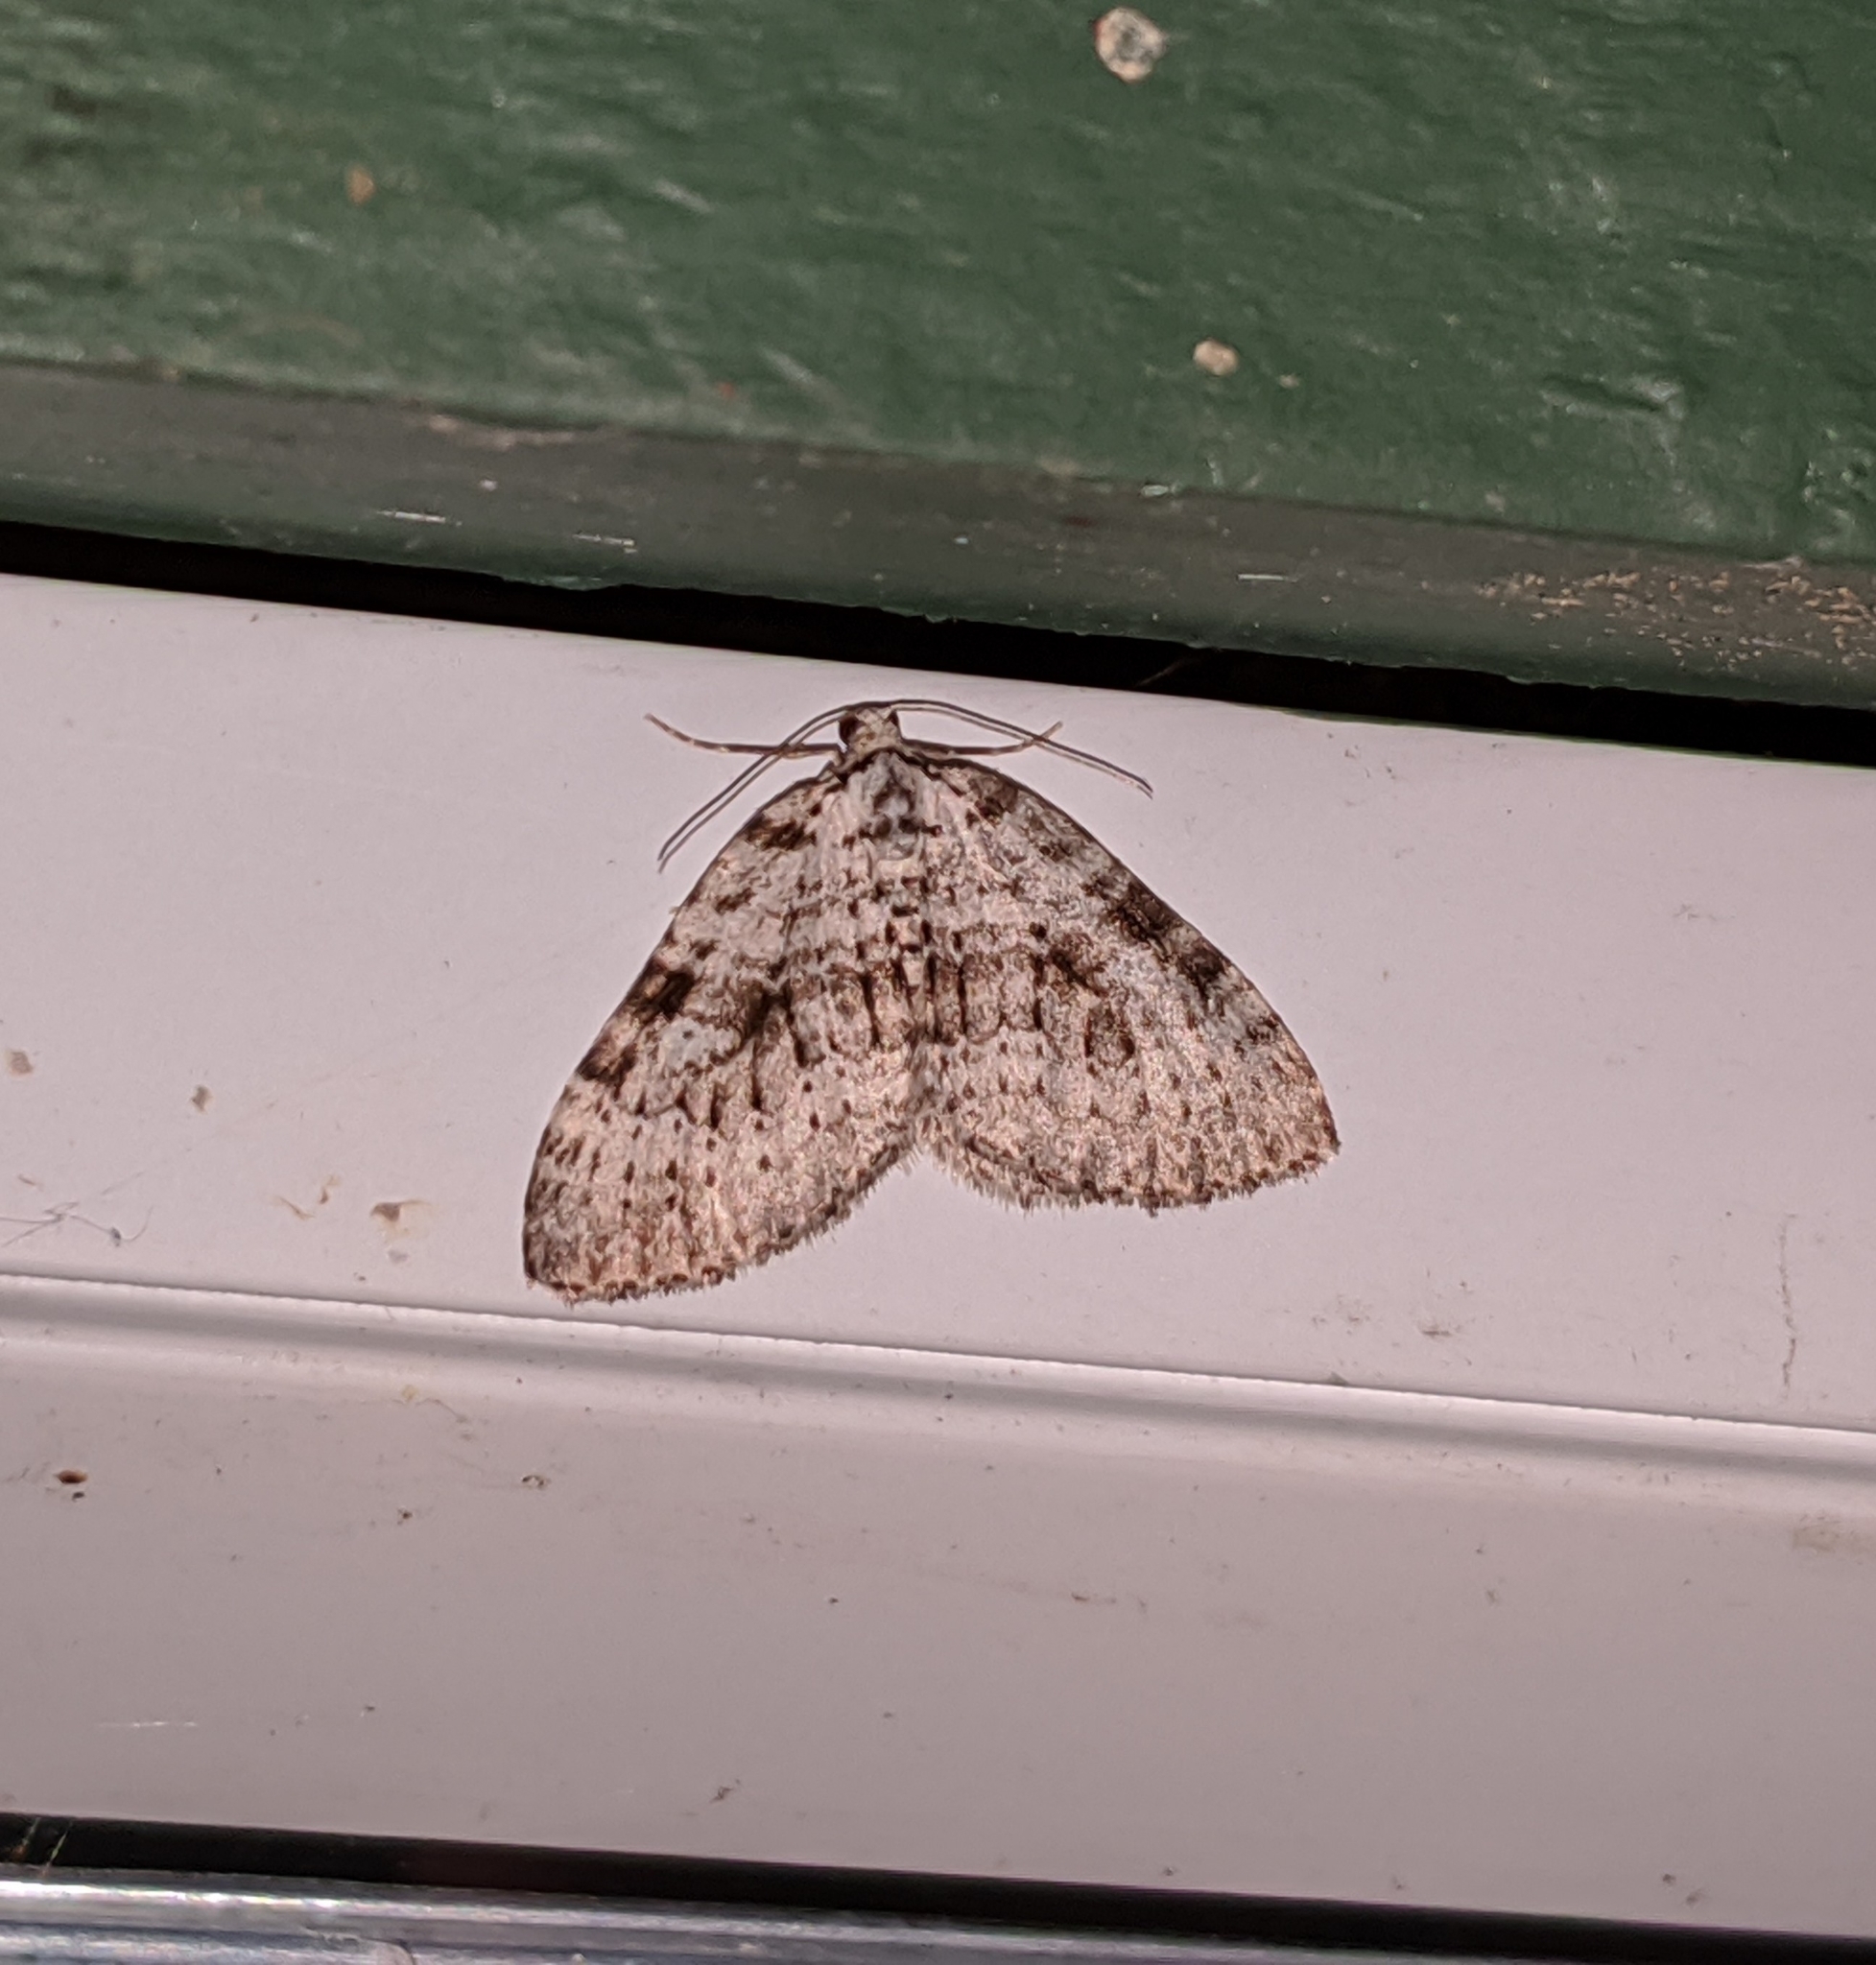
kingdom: Animalia
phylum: Arthropoda
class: Insecta
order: Lepidoptera
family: Geometridae
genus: Perizoma
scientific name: Perizoma curvilinea
